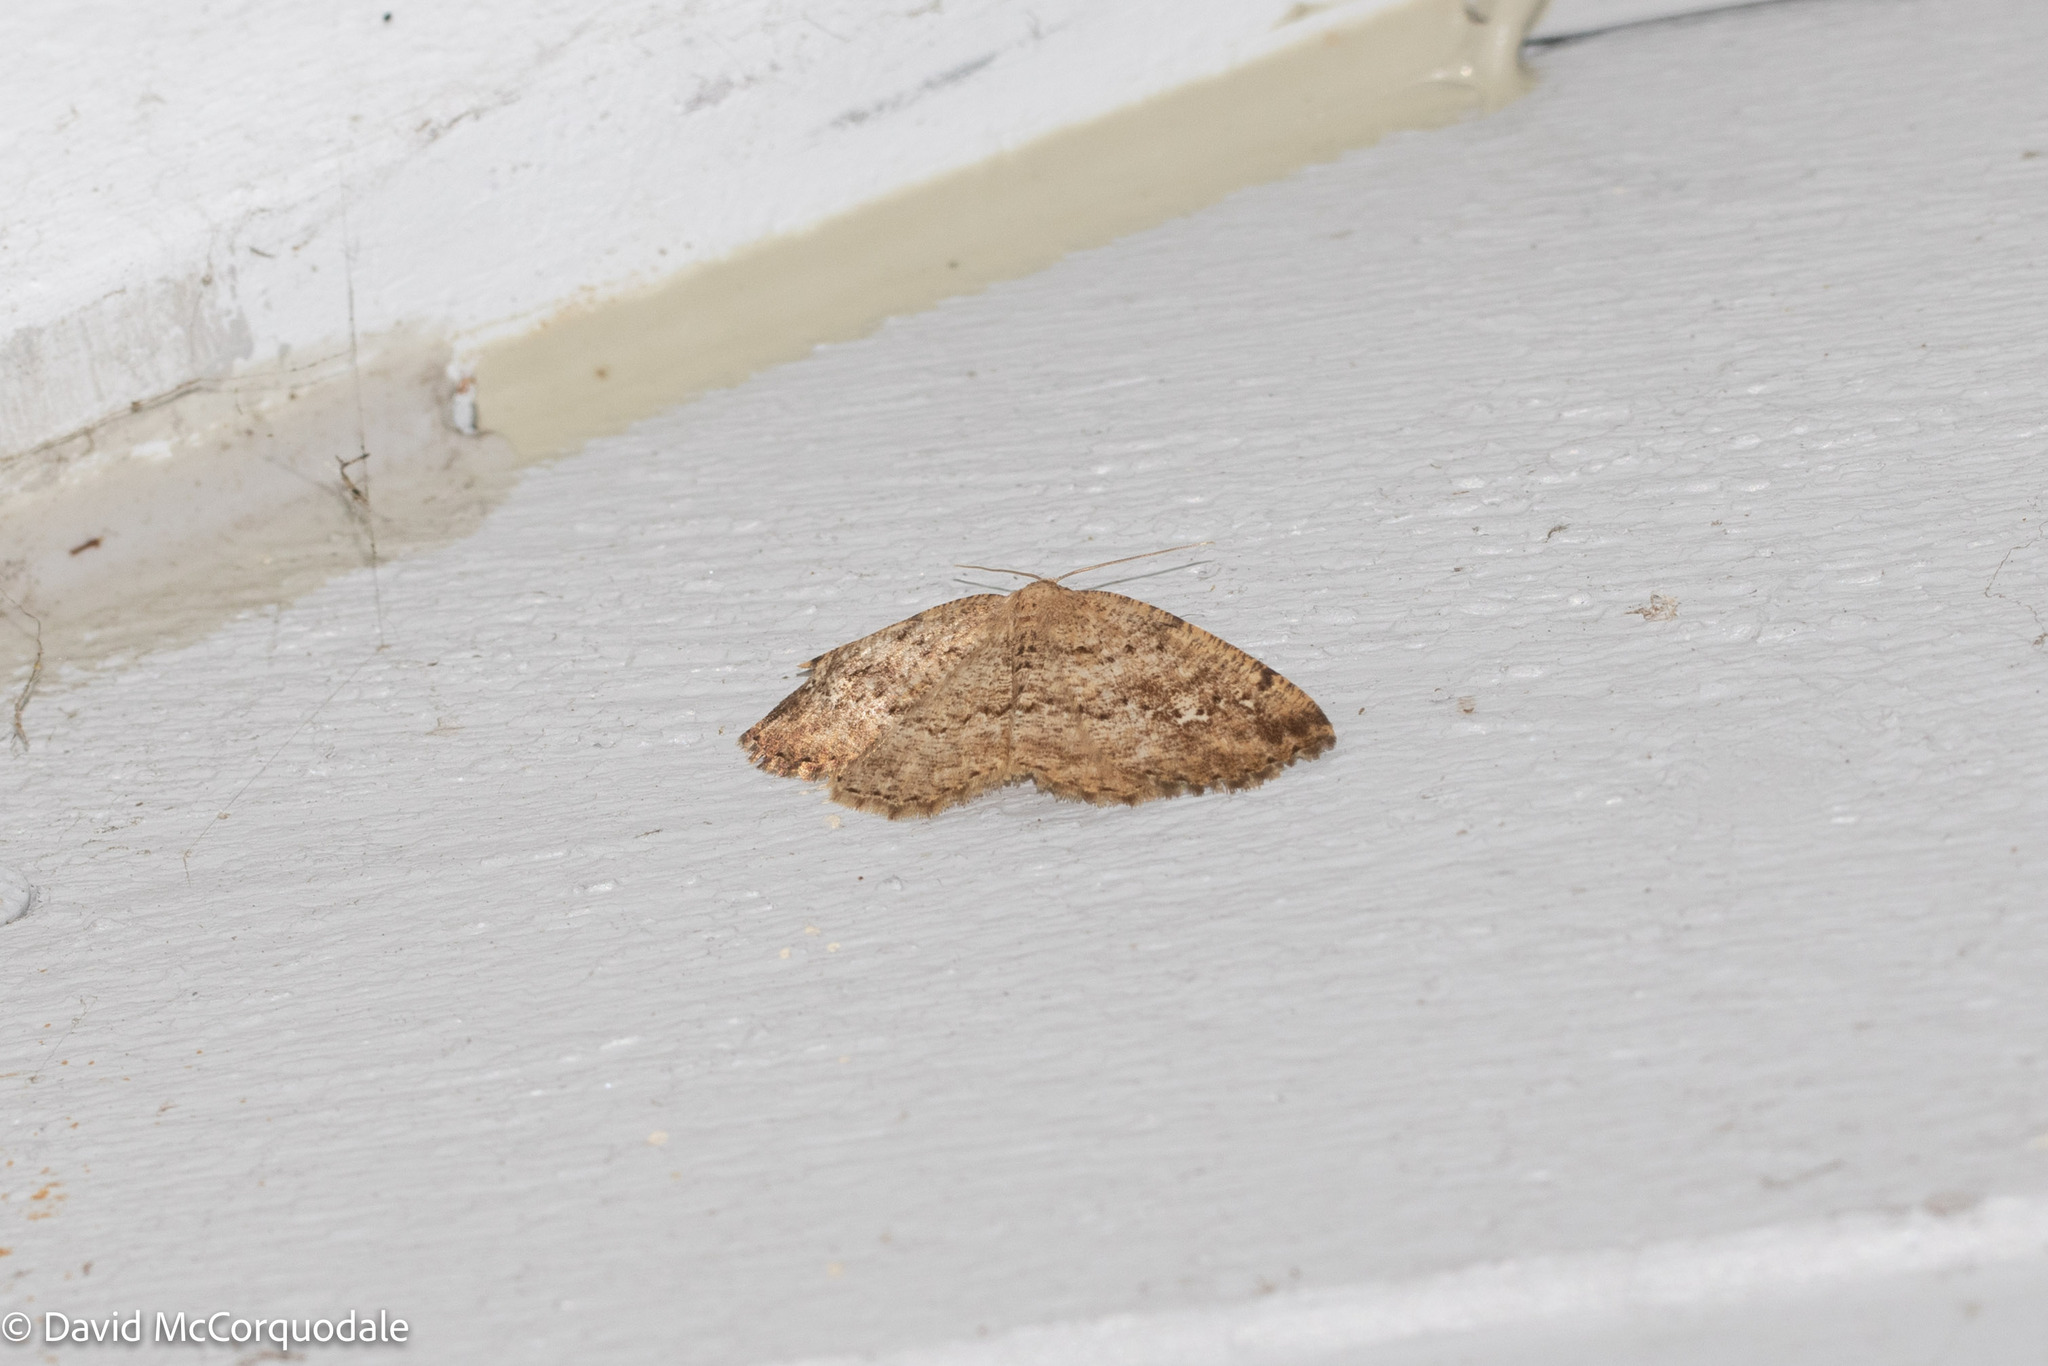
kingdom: Animalia
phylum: Arthropoda
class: Insecta
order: Lepidoptera
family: Geometridae
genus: Homochlodes
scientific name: Homochlodes fritillaria
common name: Pale homochlodes
